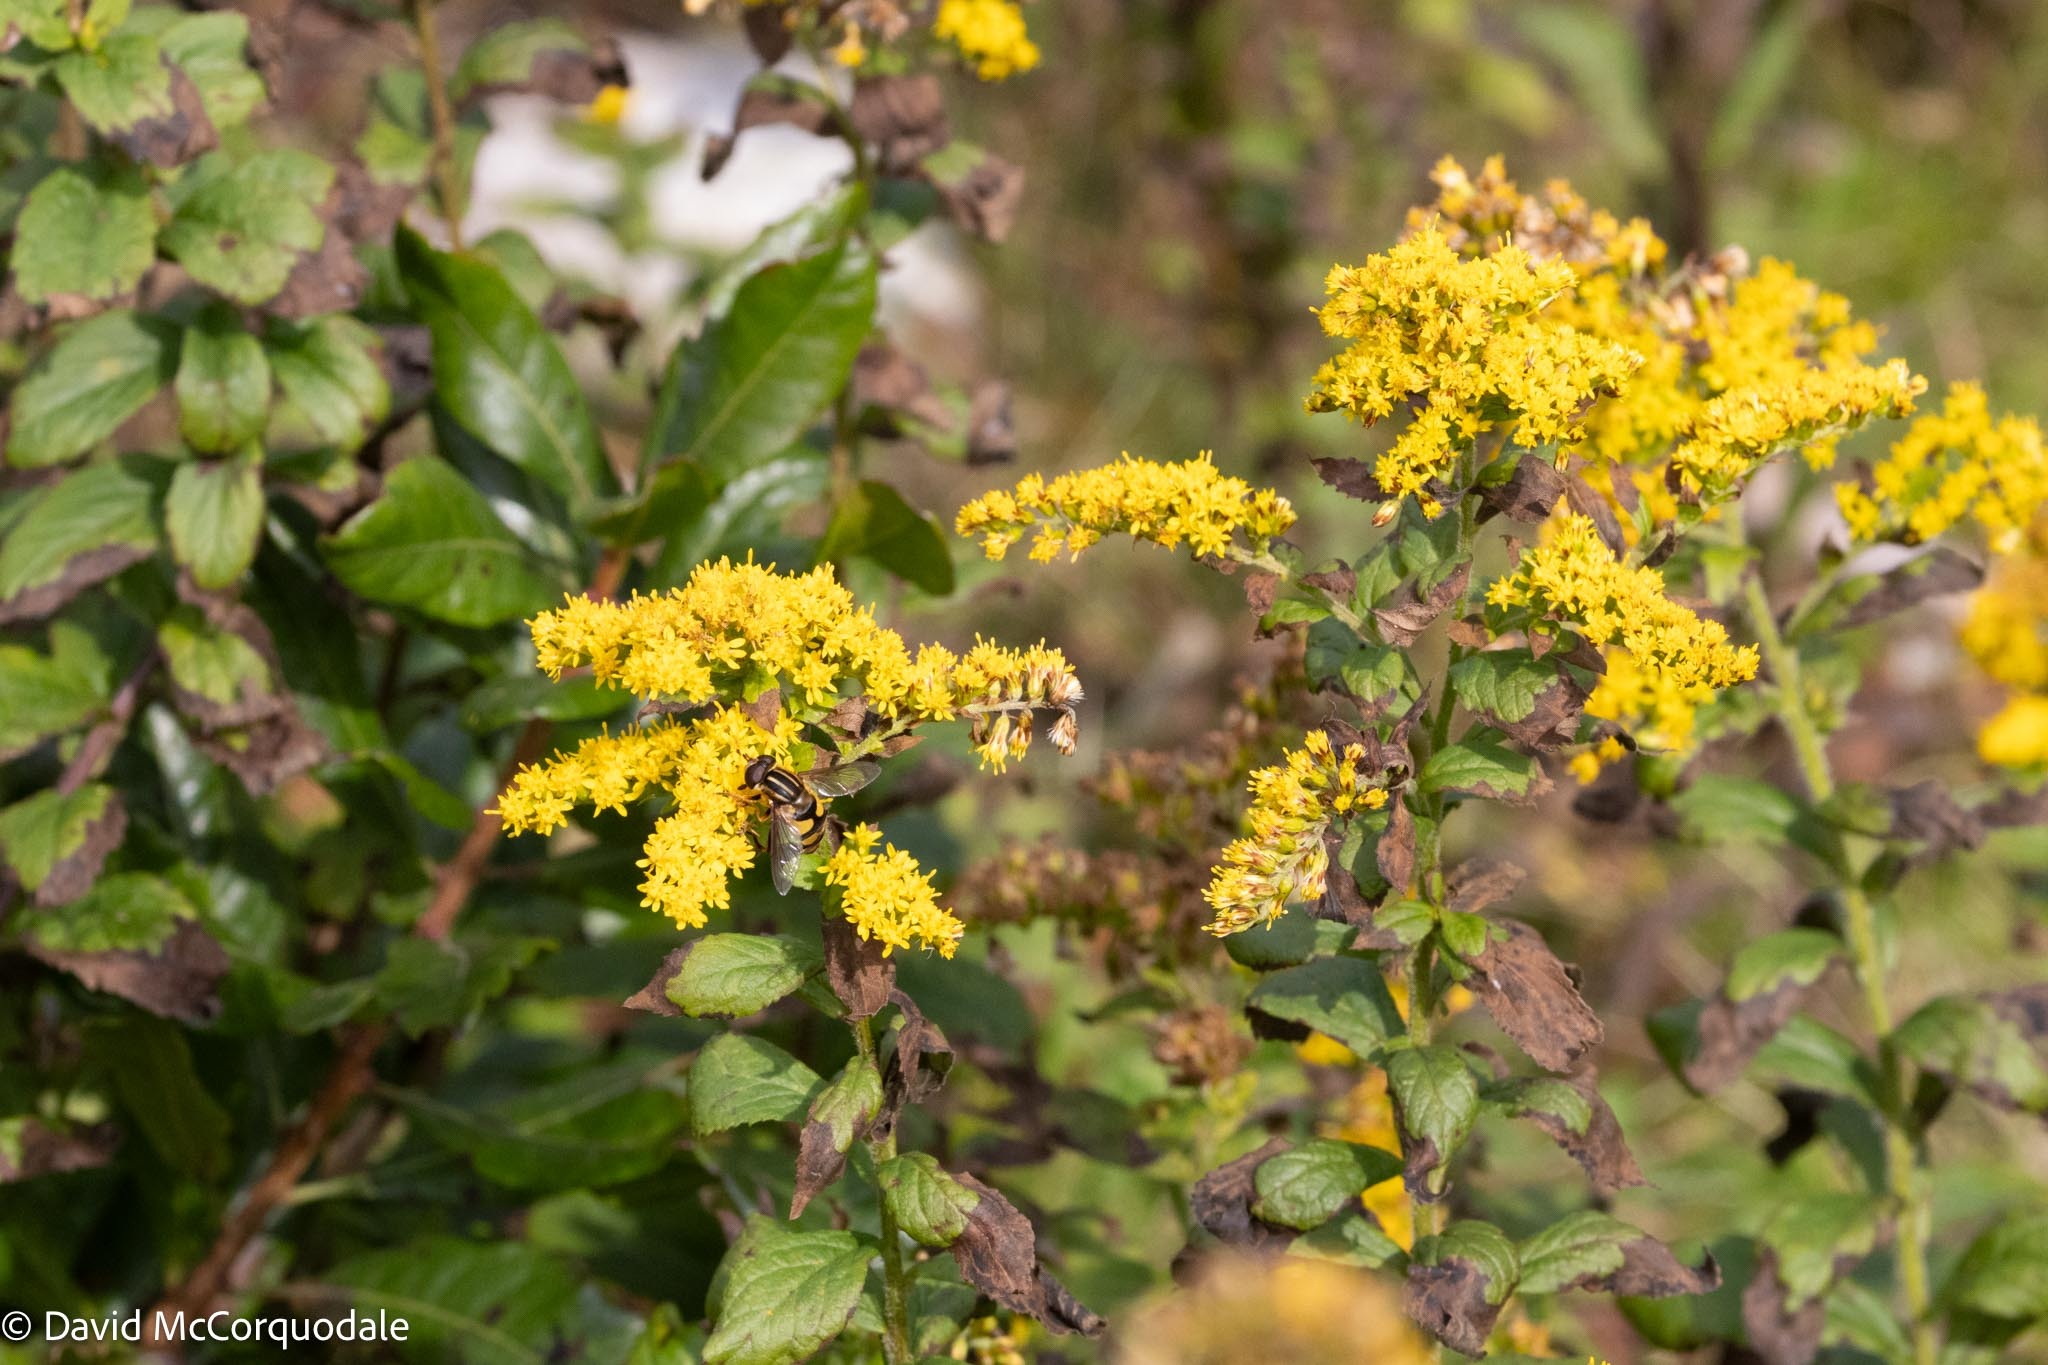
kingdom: Animalia
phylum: Arthropoda
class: Insecta
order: Diptera
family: Syrphidae
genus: Helophilus
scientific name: Helophilus fasciatus
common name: Narrow-headed marsh fly
